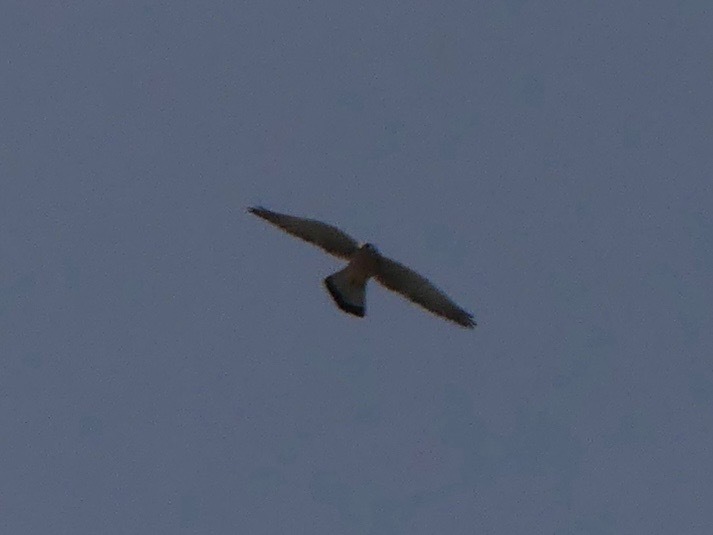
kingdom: Animalia
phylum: Chordata
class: Aves
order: Falconiformes
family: Falconidae
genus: Falco
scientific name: Falco tinnunculus
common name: Common kestrel
